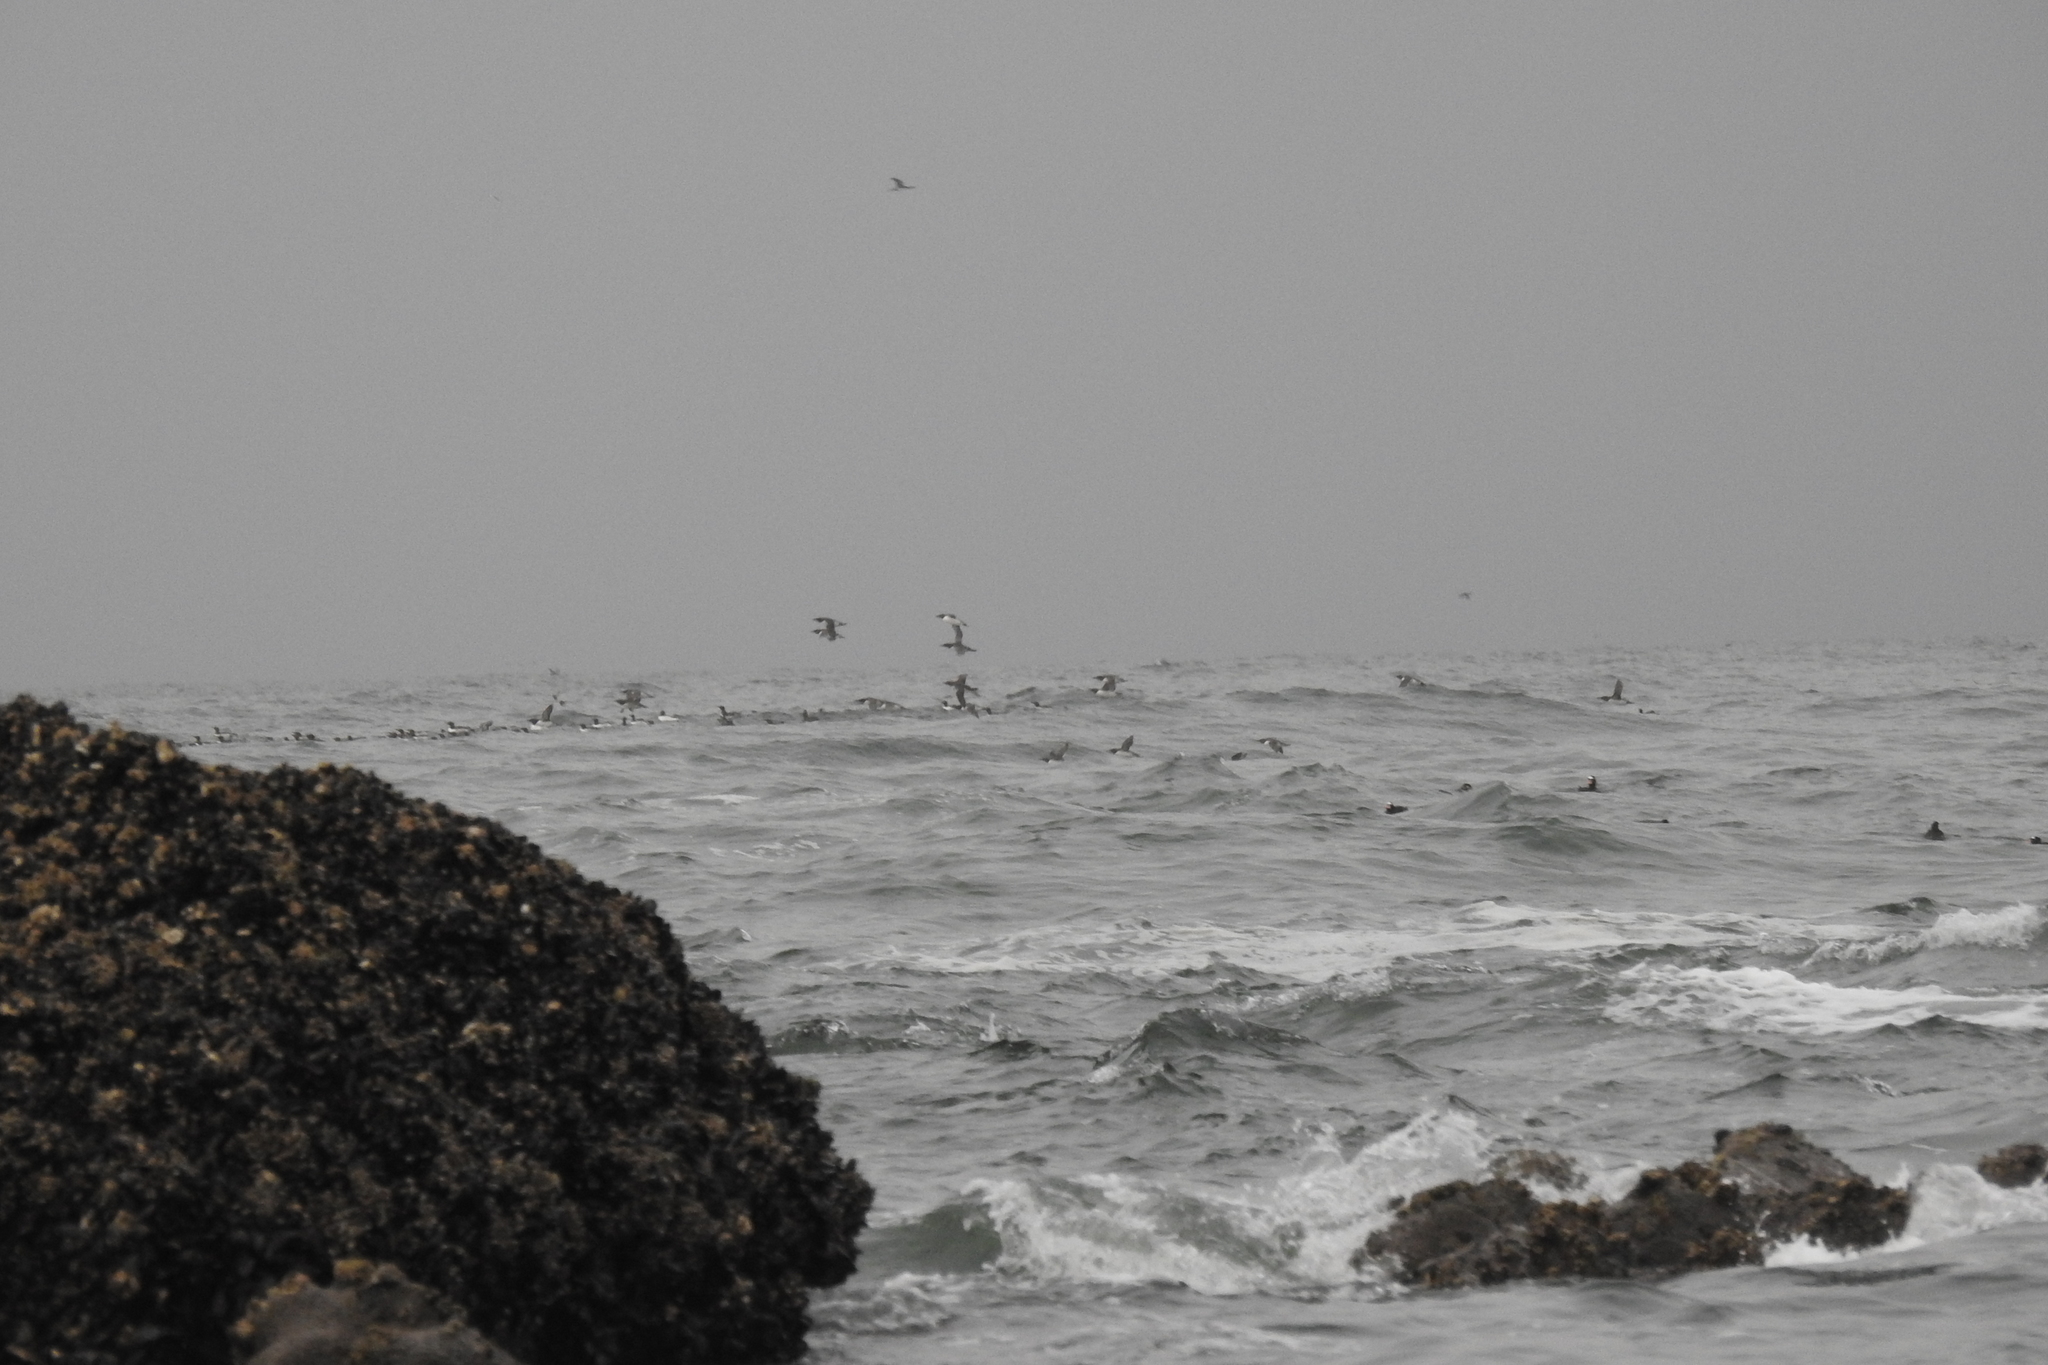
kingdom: Animalia
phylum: Chordata
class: Aves
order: Charadriiformes
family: Alcidae
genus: Uria
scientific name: Uria aalge
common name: Common murre
